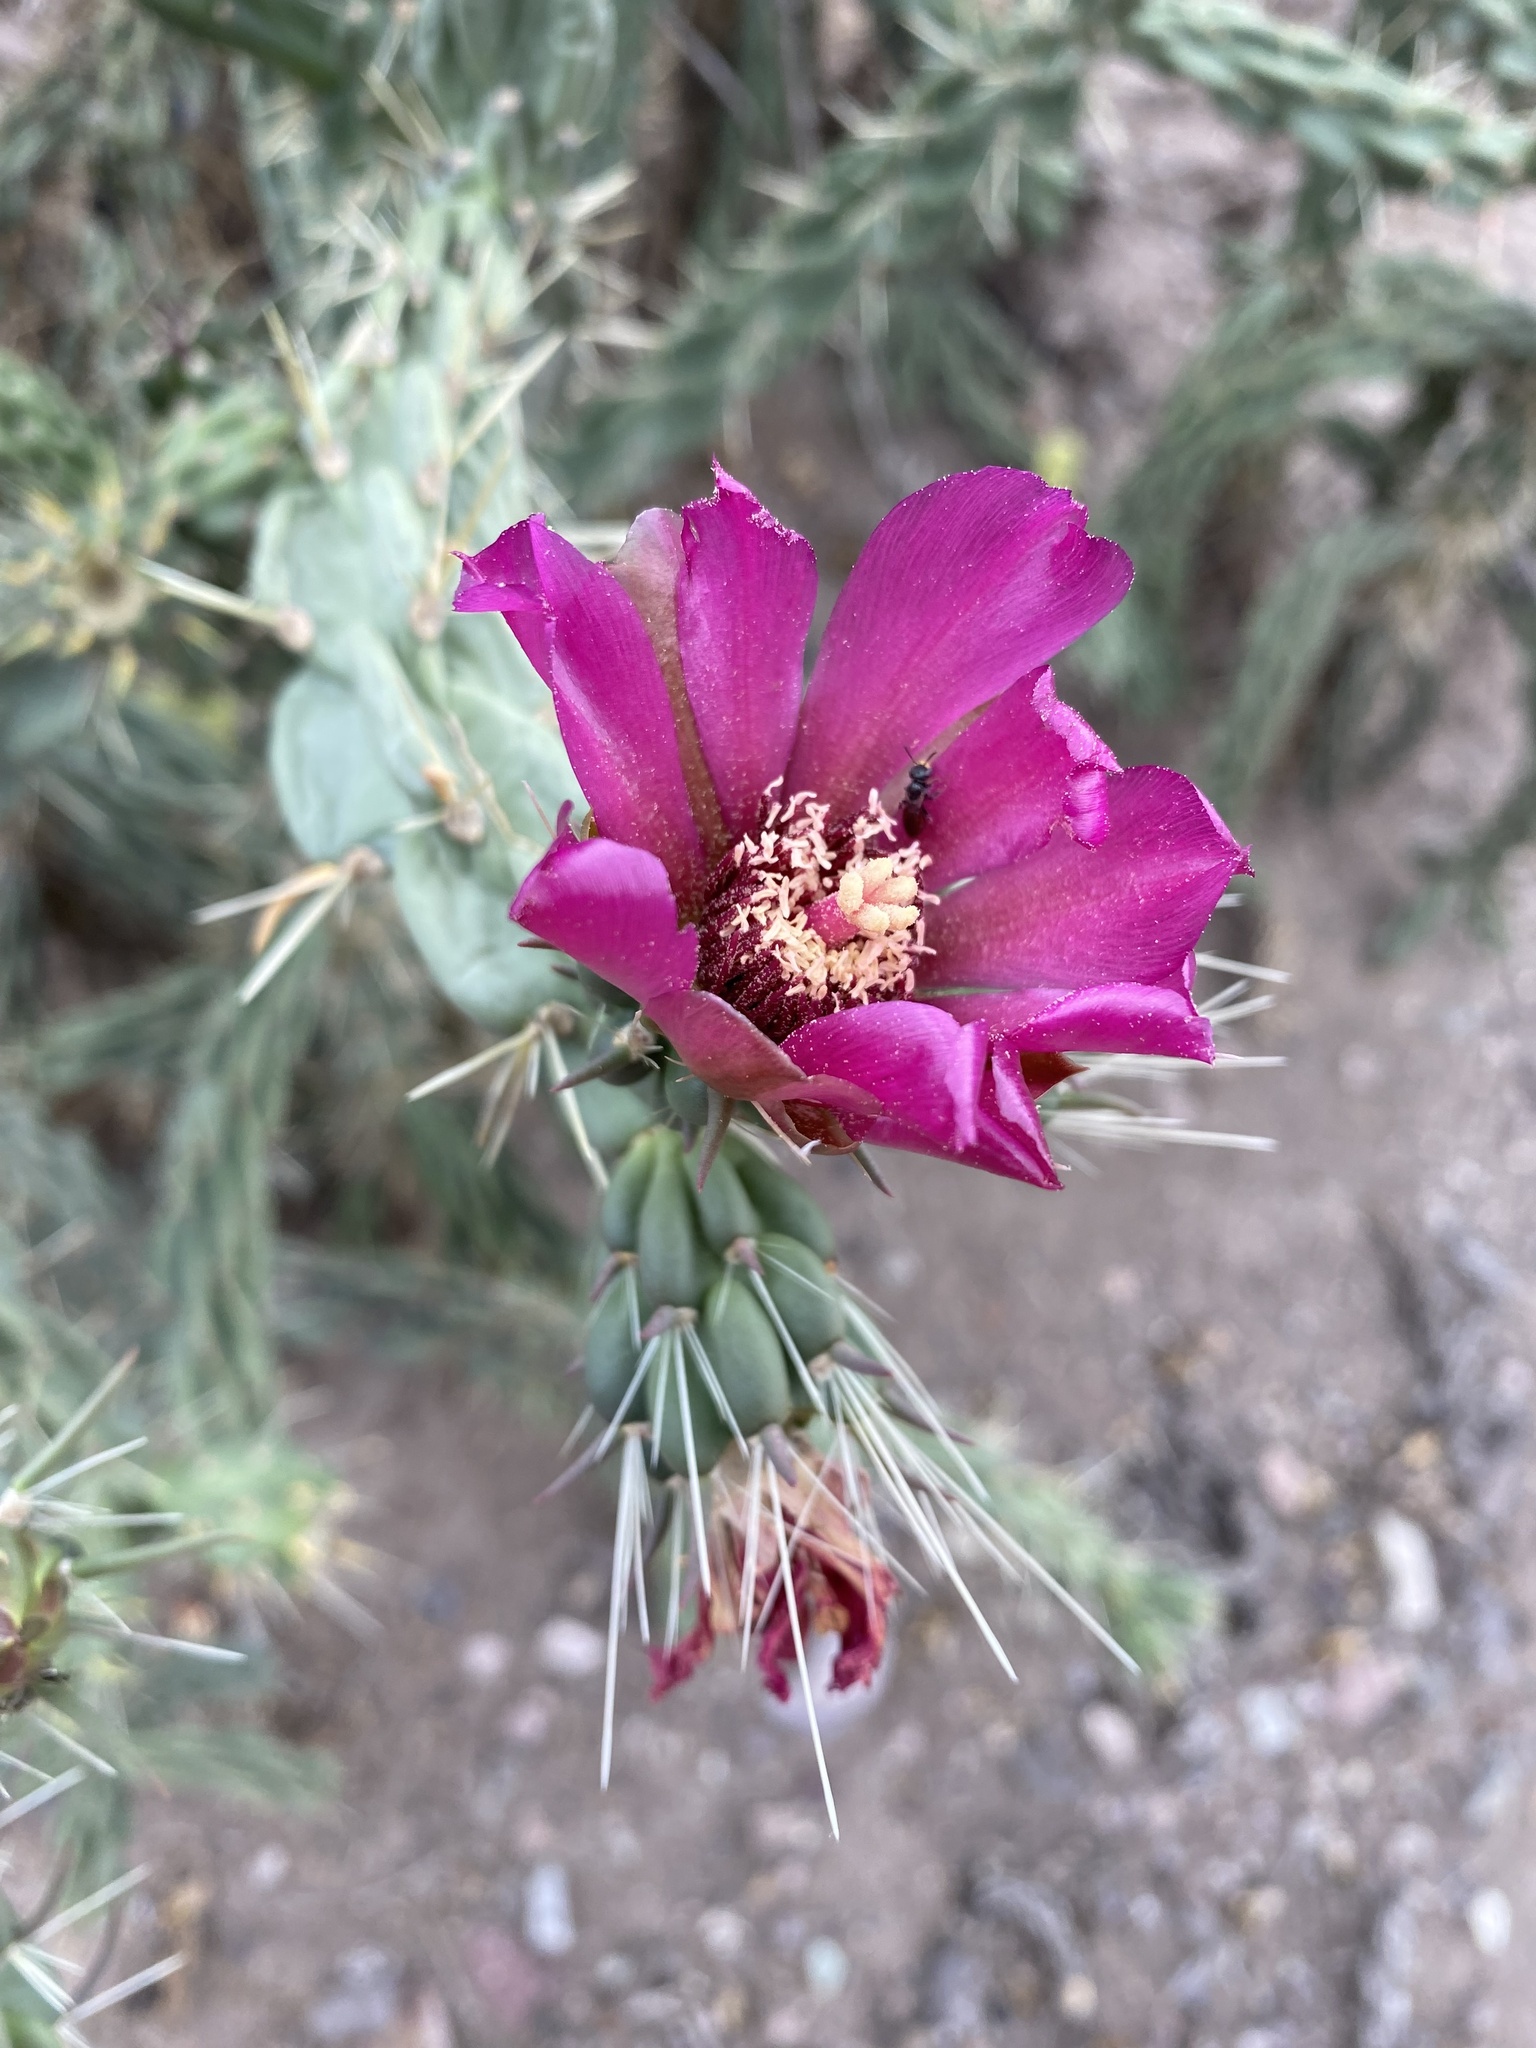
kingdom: Plantae
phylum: Tracheophyta
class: Magnoliopsida
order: Caryophyllales
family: Cactaceae
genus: Cylindropuntia
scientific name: Cylindropuntia imbricata
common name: Candelabrum cactus
